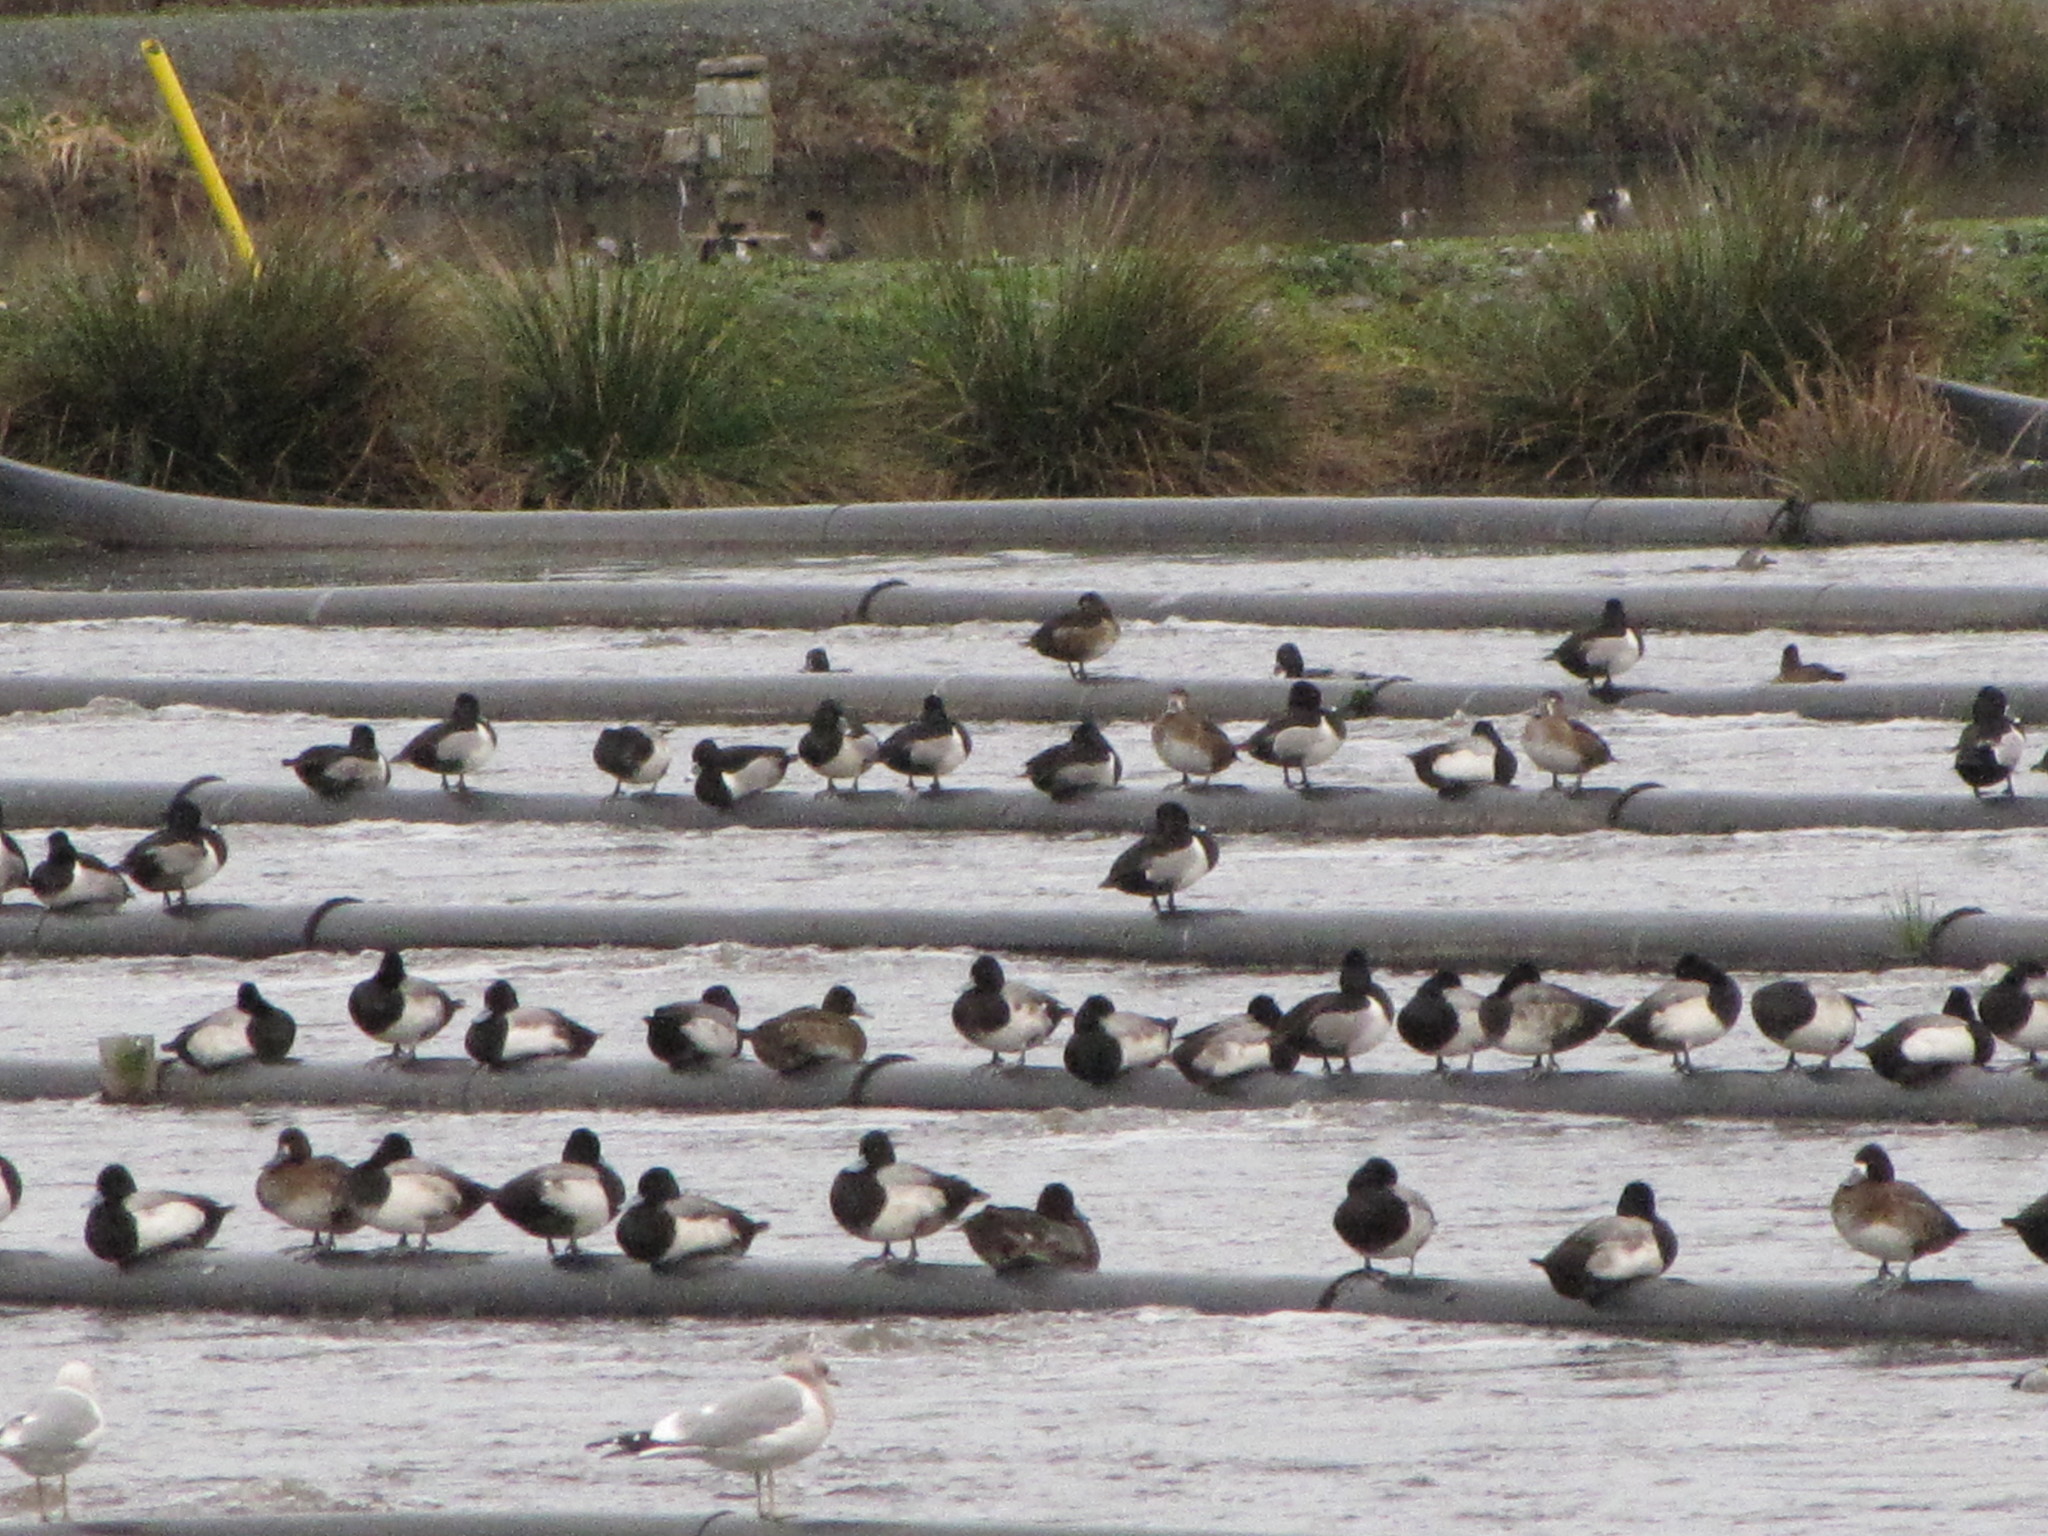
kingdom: Animalia
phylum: Chordata
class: Aves
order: Anseriformes
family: Anatidae
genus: Aythya
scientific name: Aythya affinis
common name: Lesser scaup
